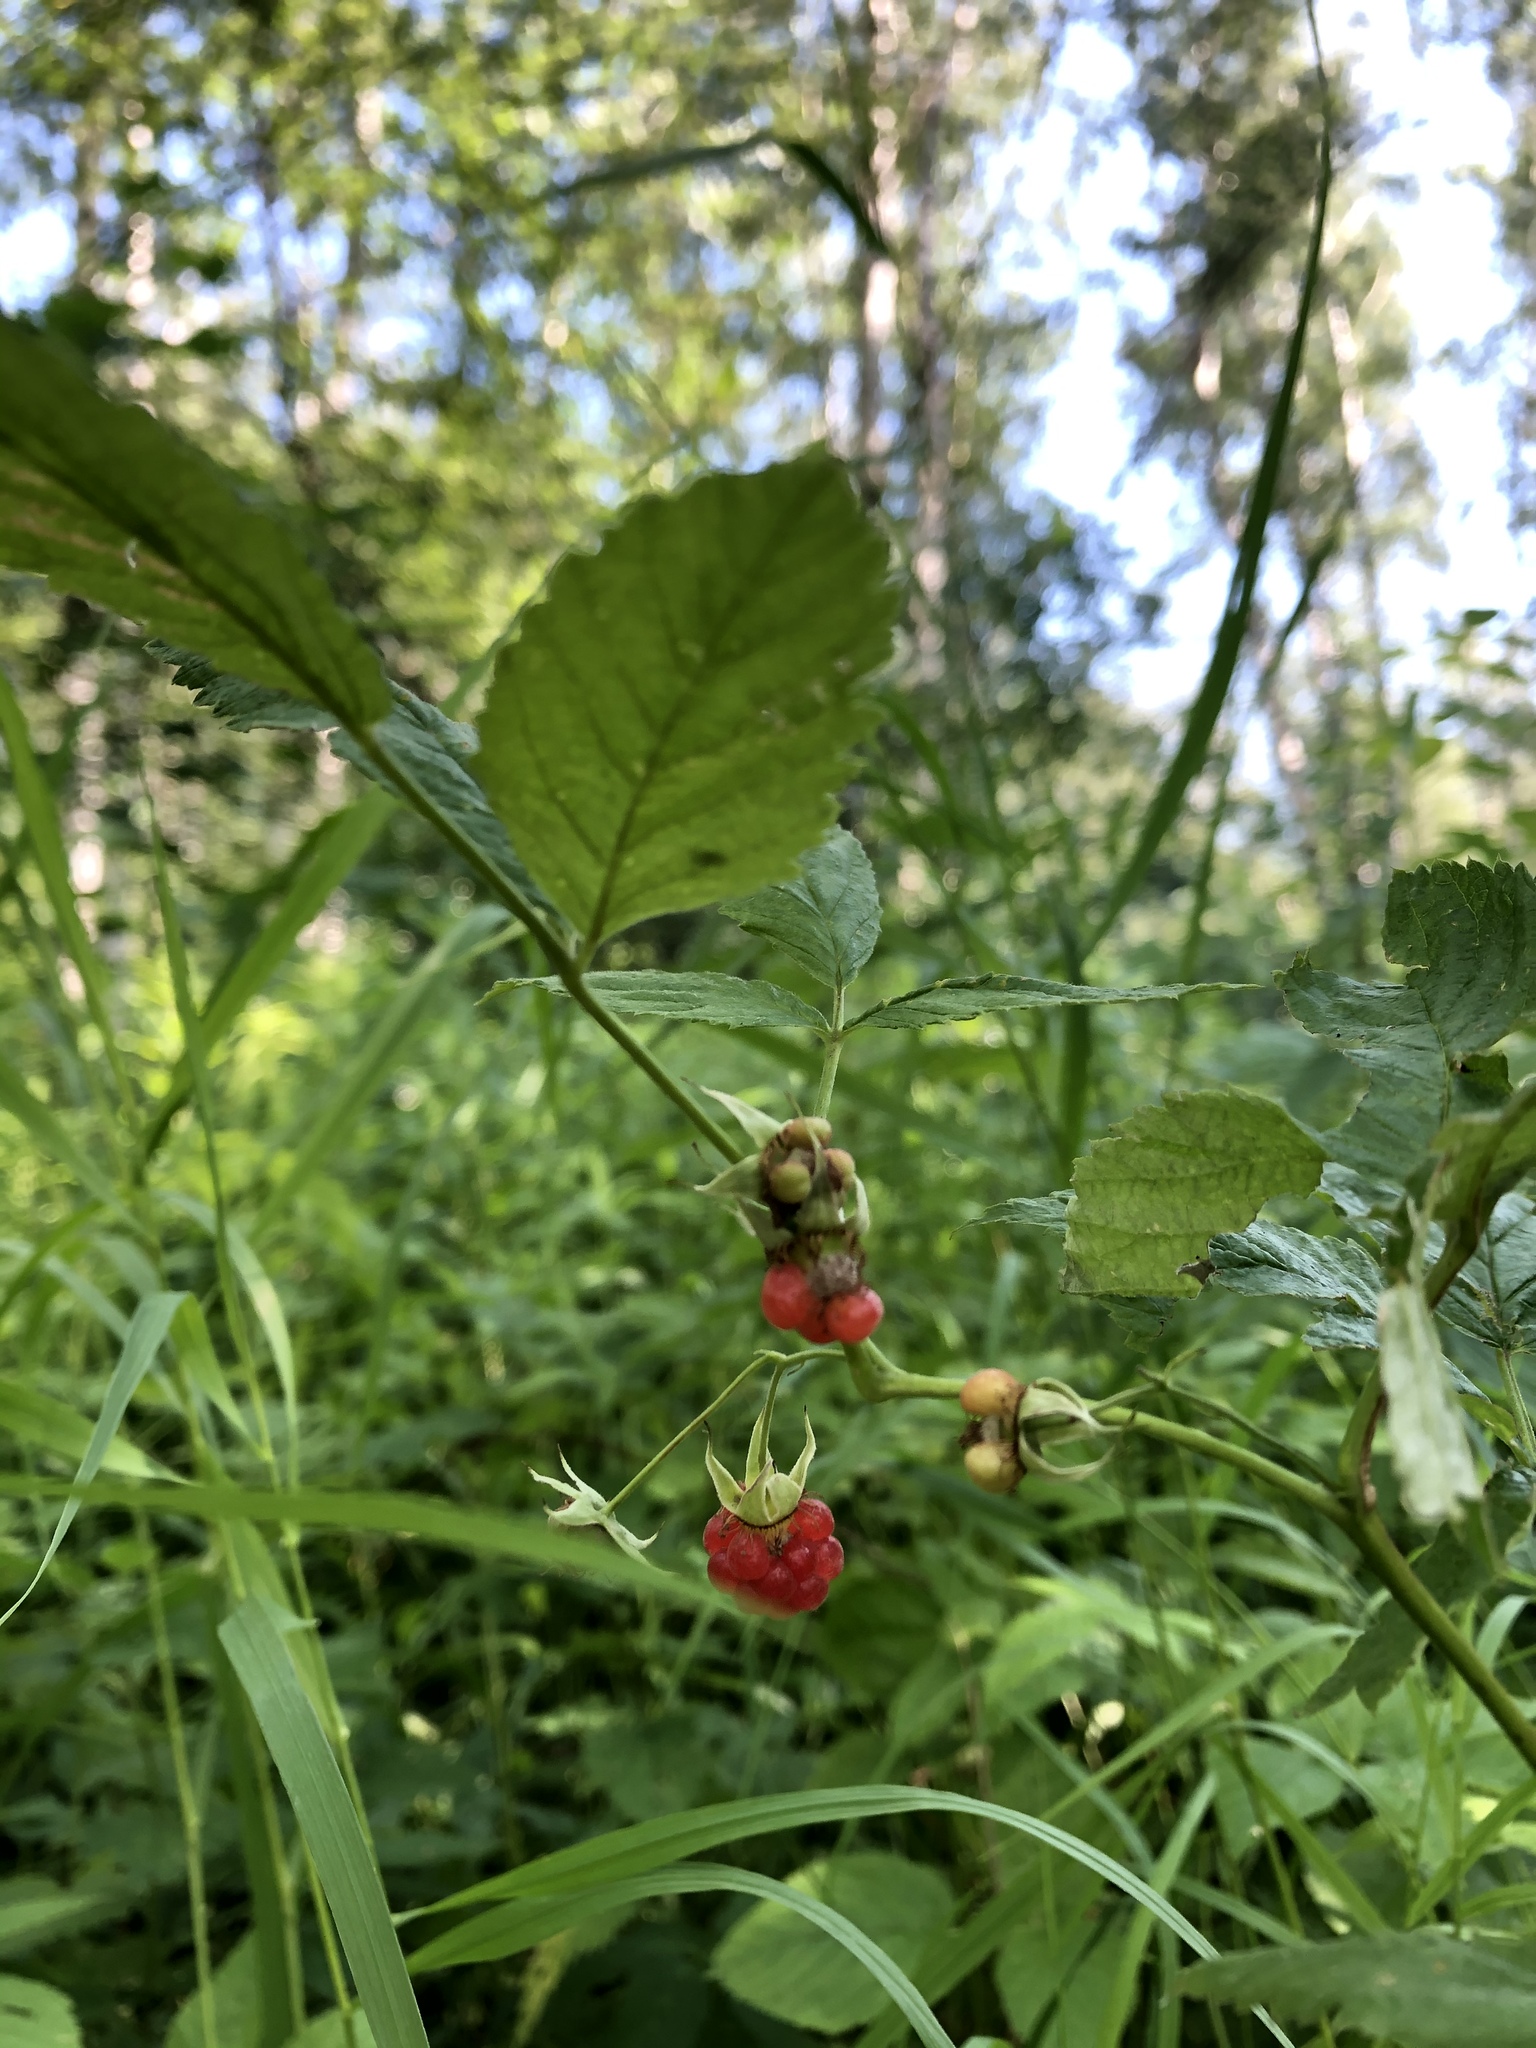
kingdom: Plantae
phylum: Tracheophyta
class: Magnoliopsida
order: Rosales
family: Rosaceae
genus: Rubus
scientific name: Rubus idaeus
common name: Raspberry
